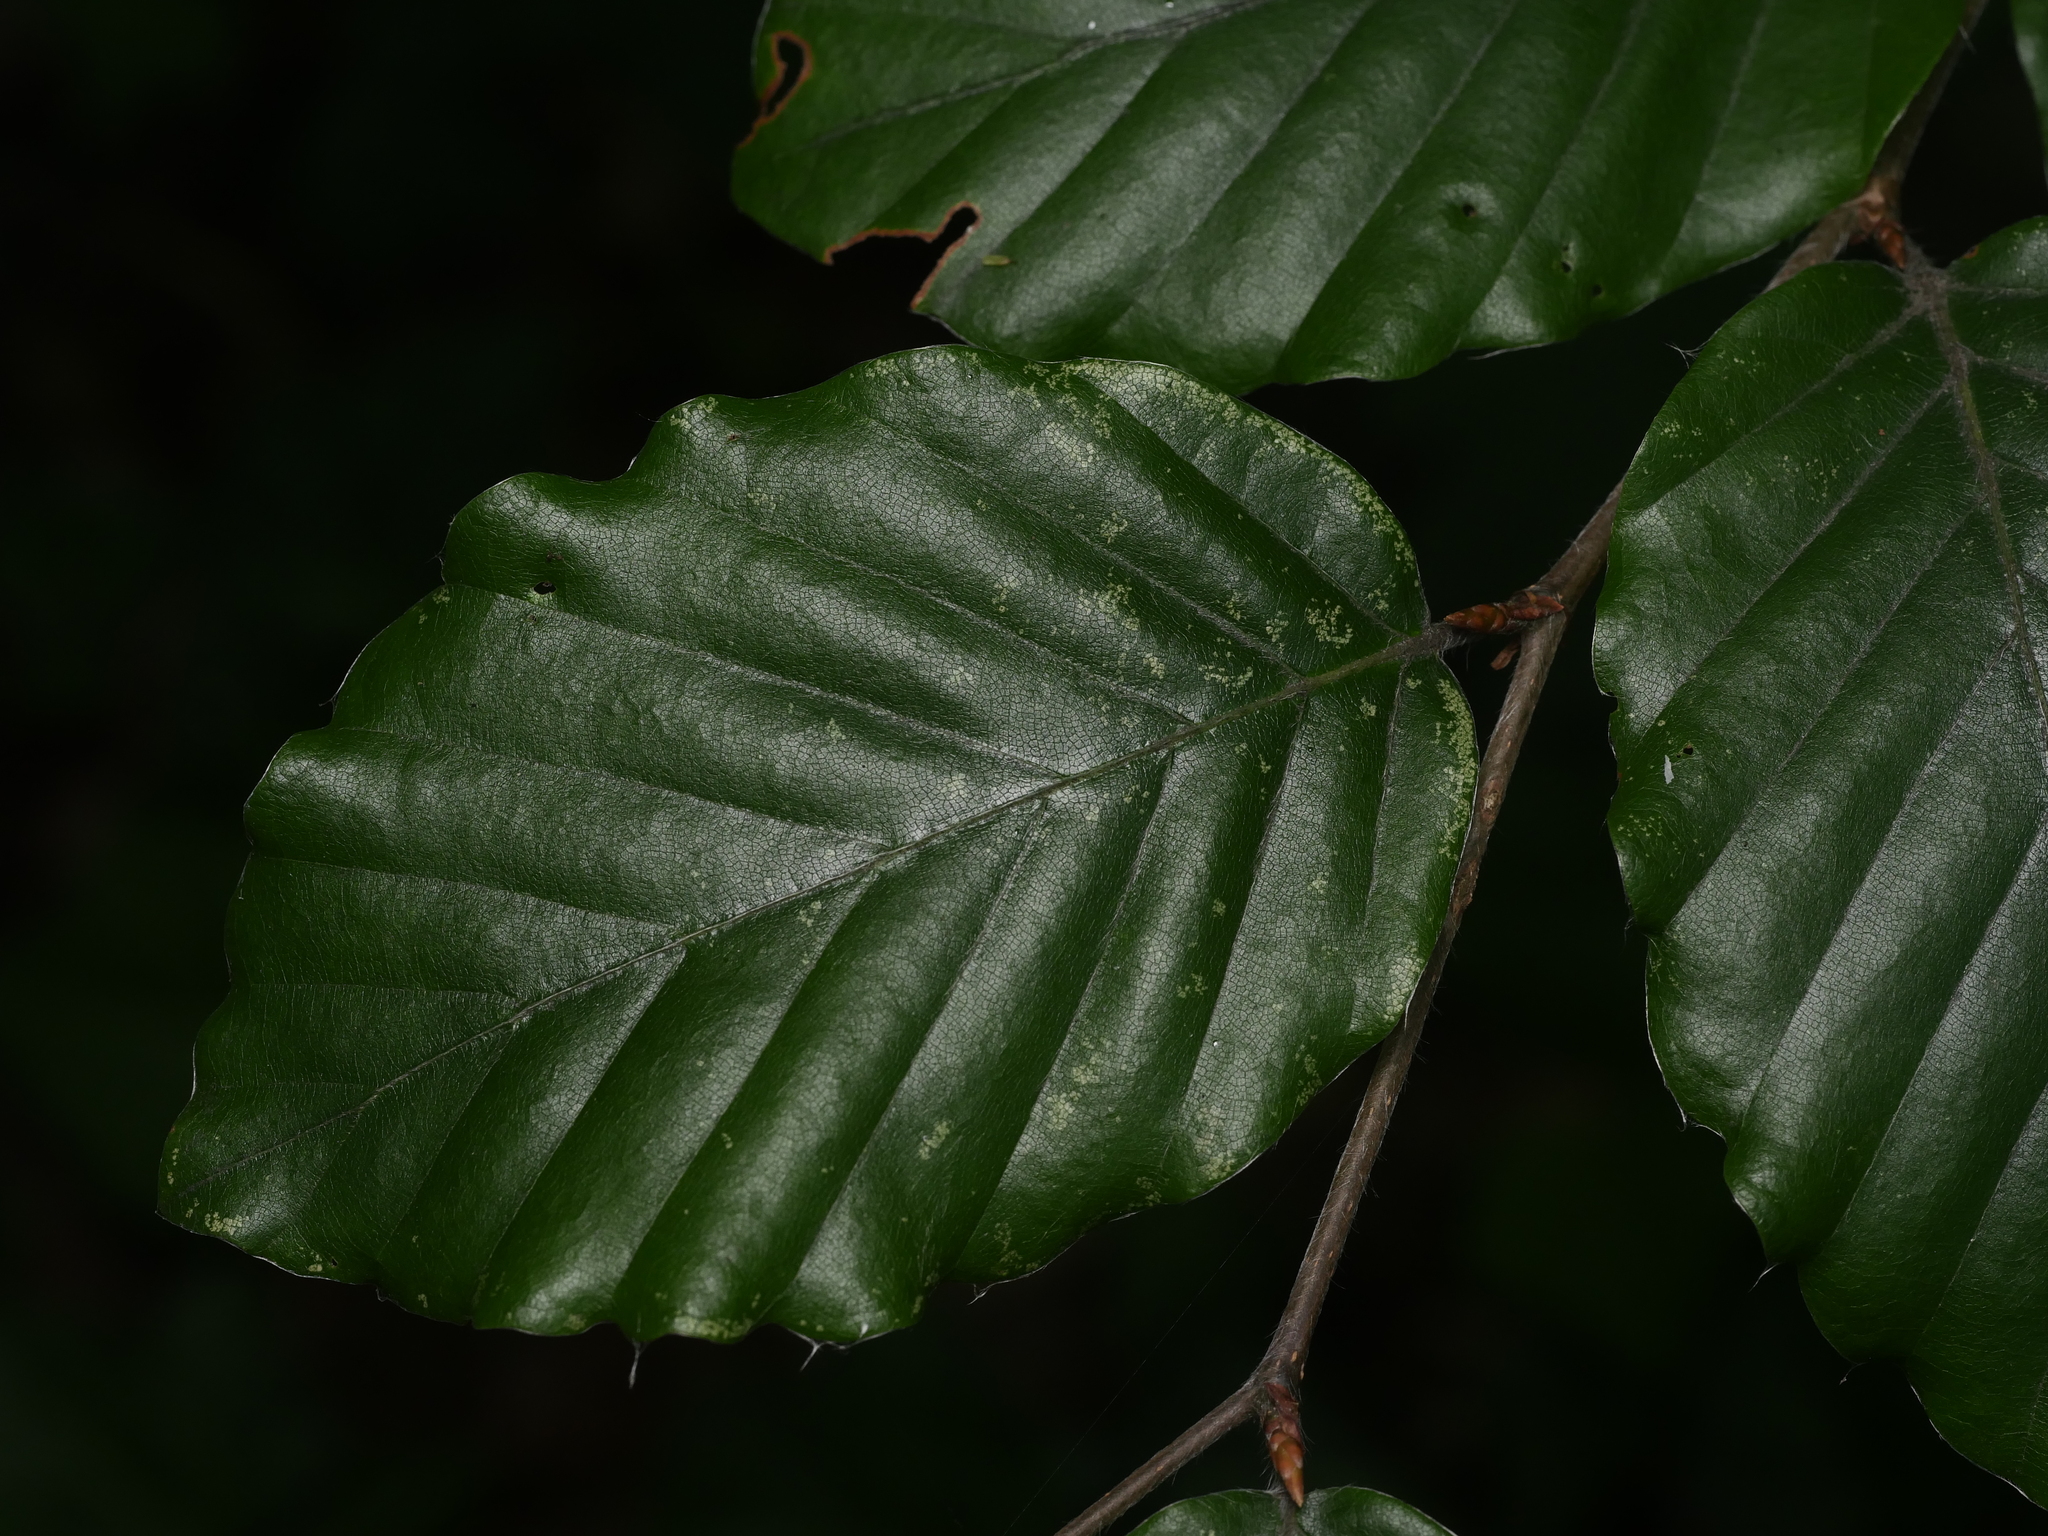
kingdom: Plantae
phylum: Tracheophyta
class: Magnoliopsida
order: Fagales
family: Fagaceae
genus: Fagus
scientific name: Fagus sylvatica
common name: Beech
